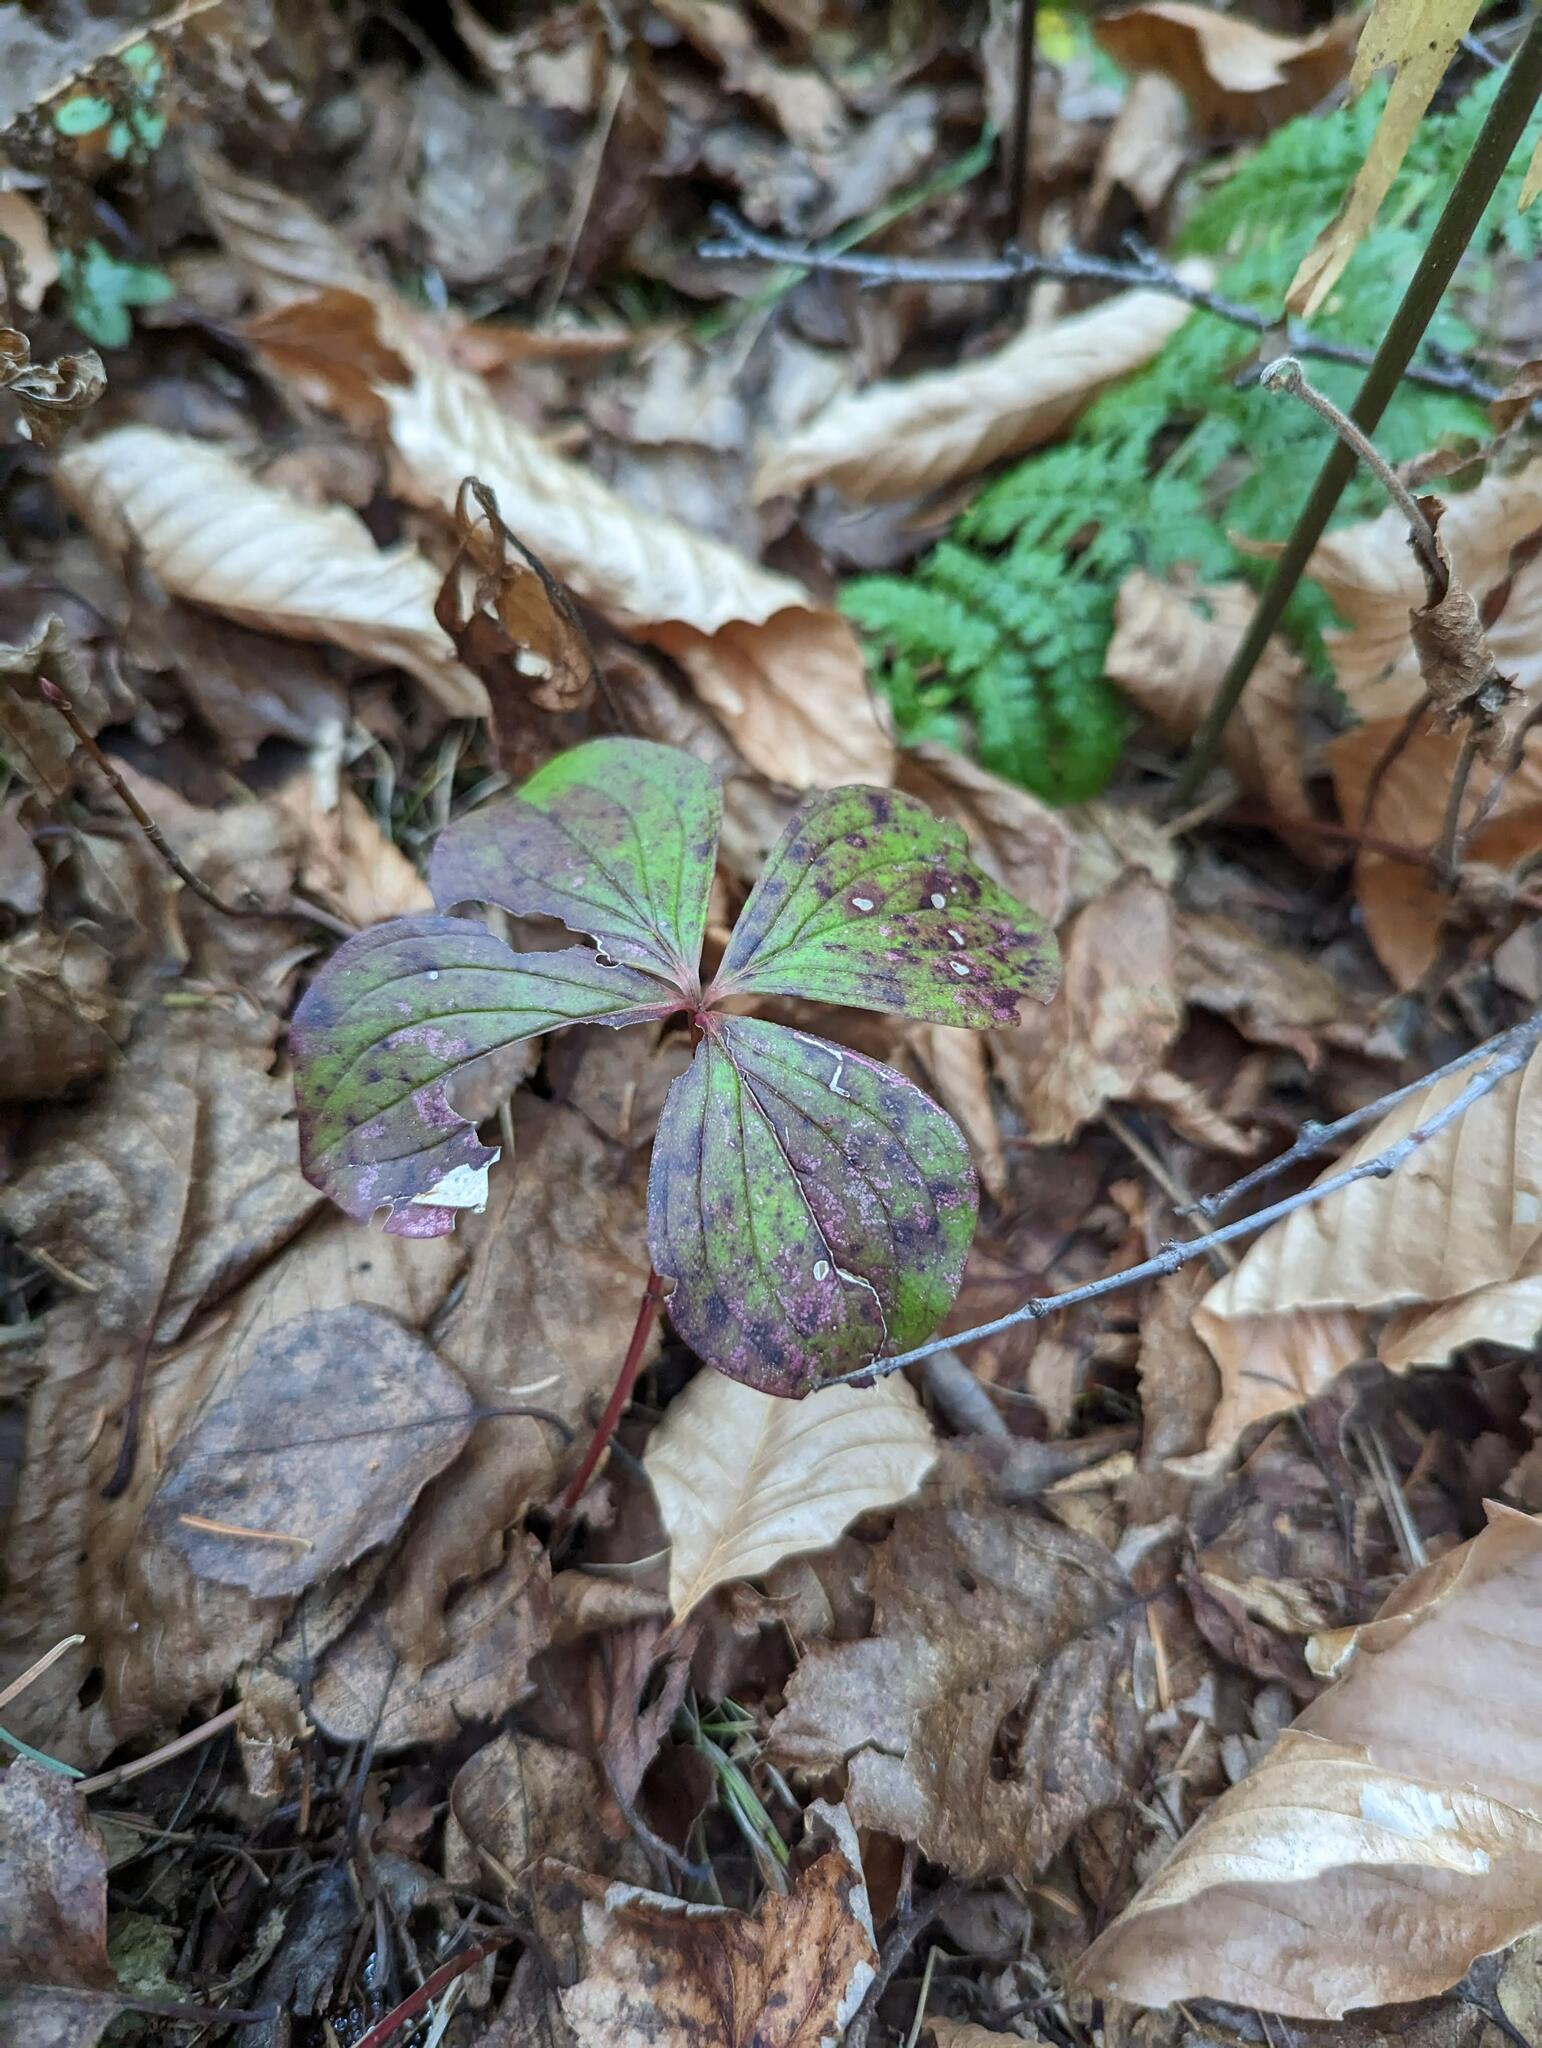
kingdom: Plantae
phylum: Tracheophyta
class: Magnoliopsida
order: Cornales
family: Cornaceae
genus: Cornus
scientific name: Cornus canadensis
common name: Creeping dogwood
